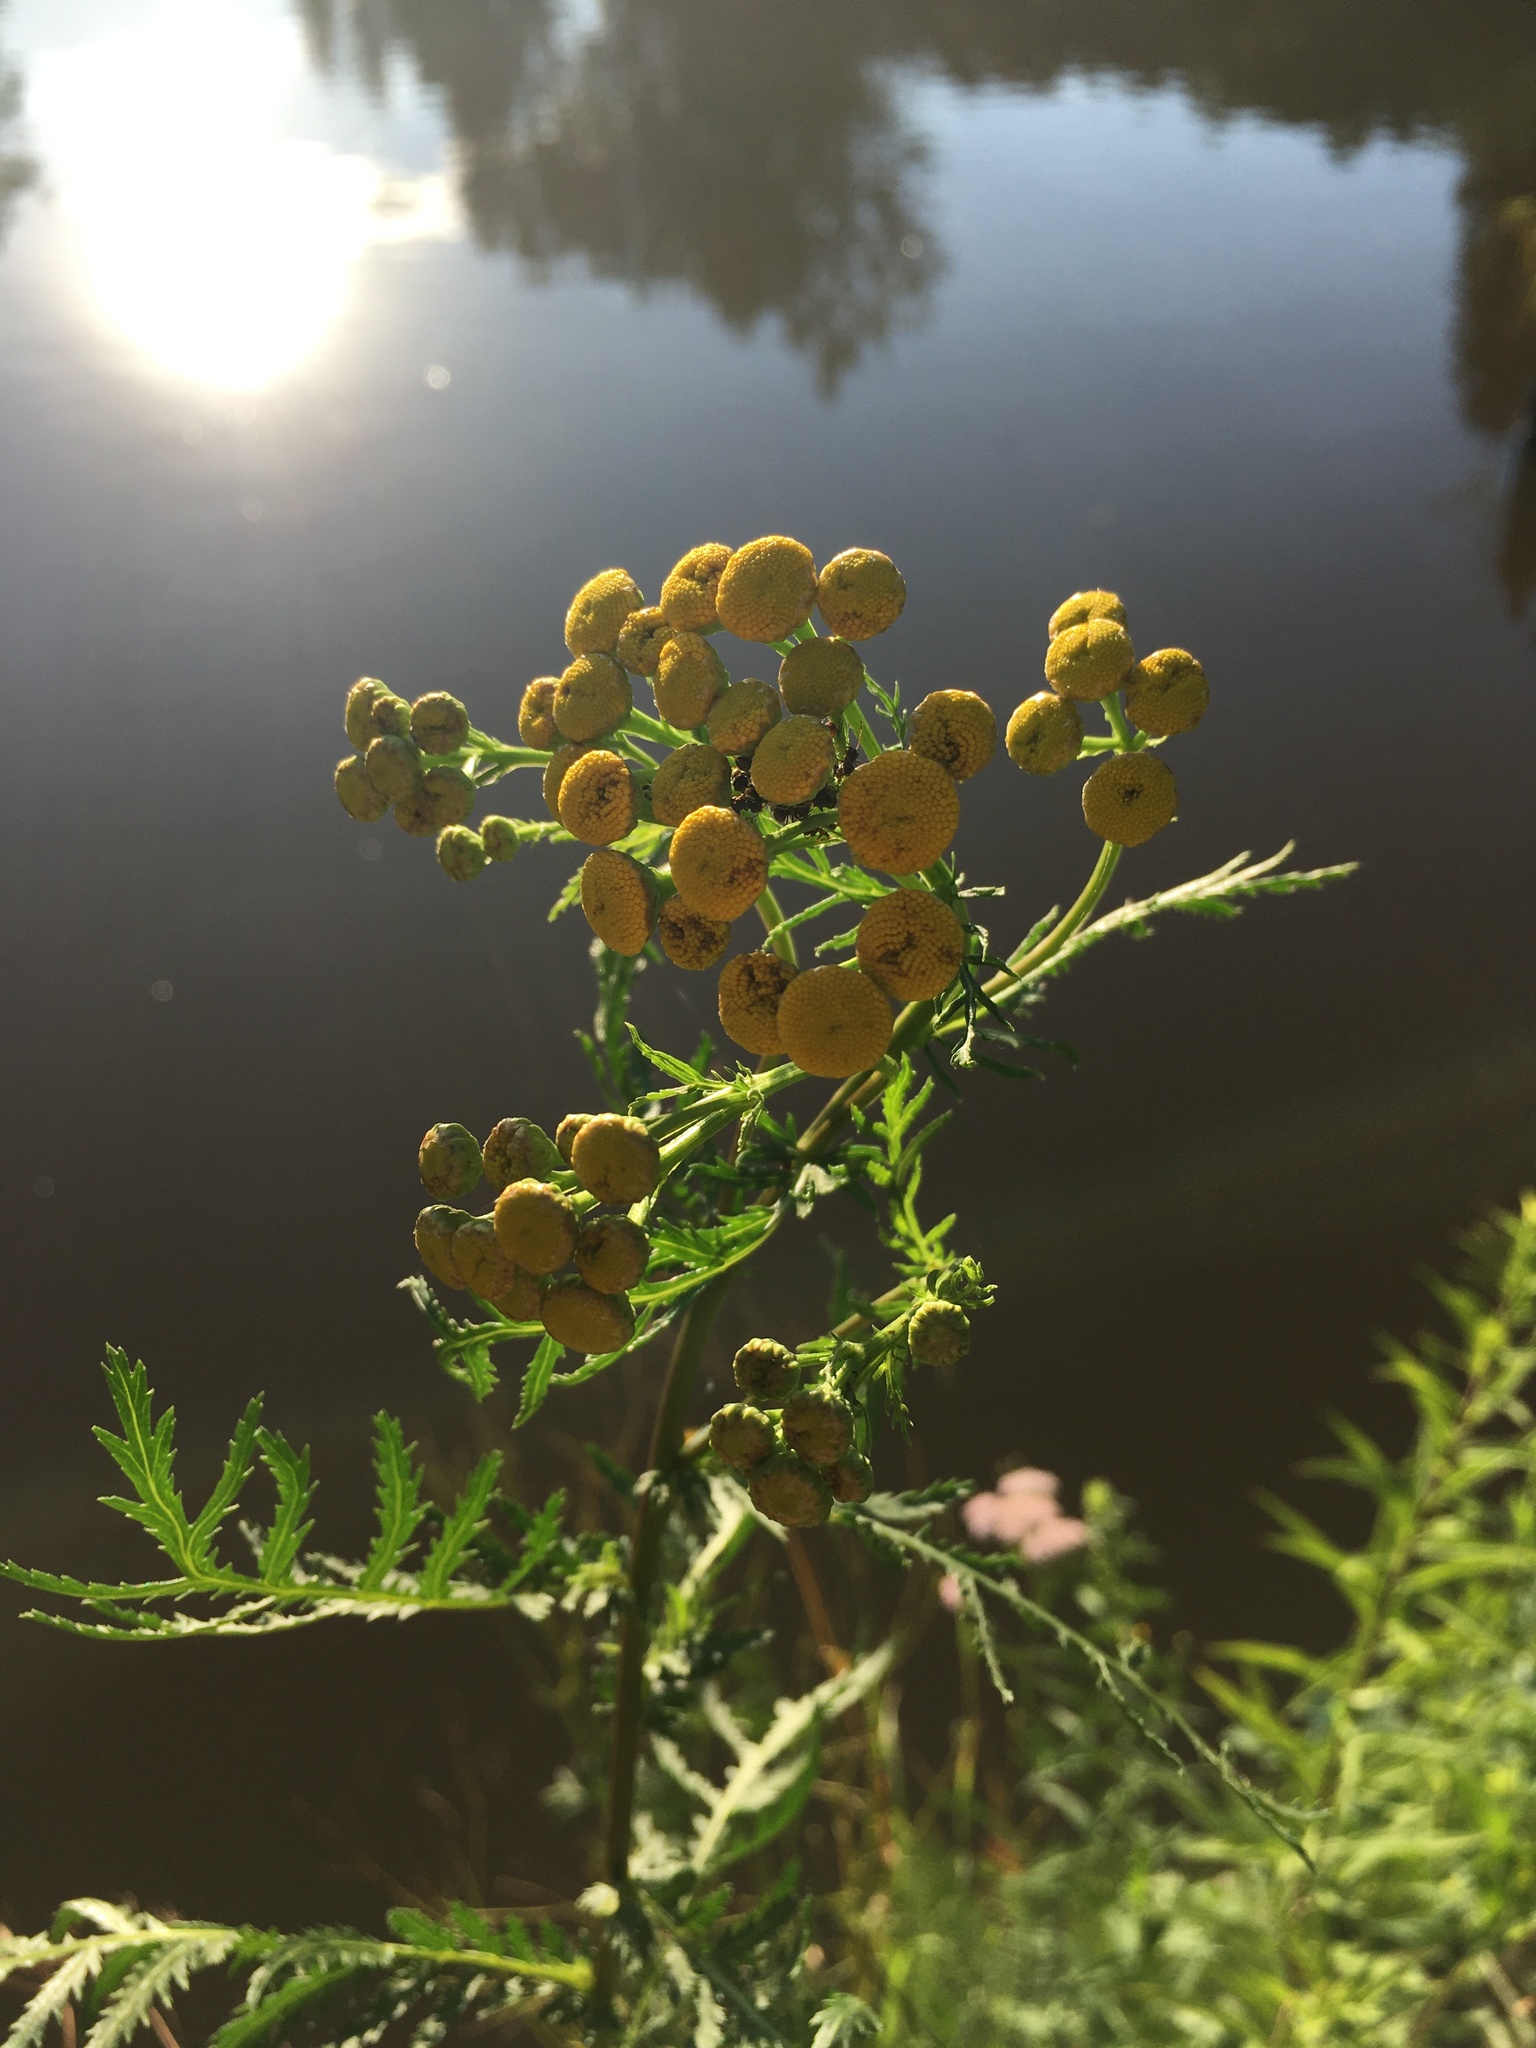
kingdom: Plantae
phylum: Tracheophyta
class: Magnoliopsida
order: Asterales
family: Asteraceae
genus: Tanacetum
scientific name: Tanacetum vulgare
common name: Common tansy
